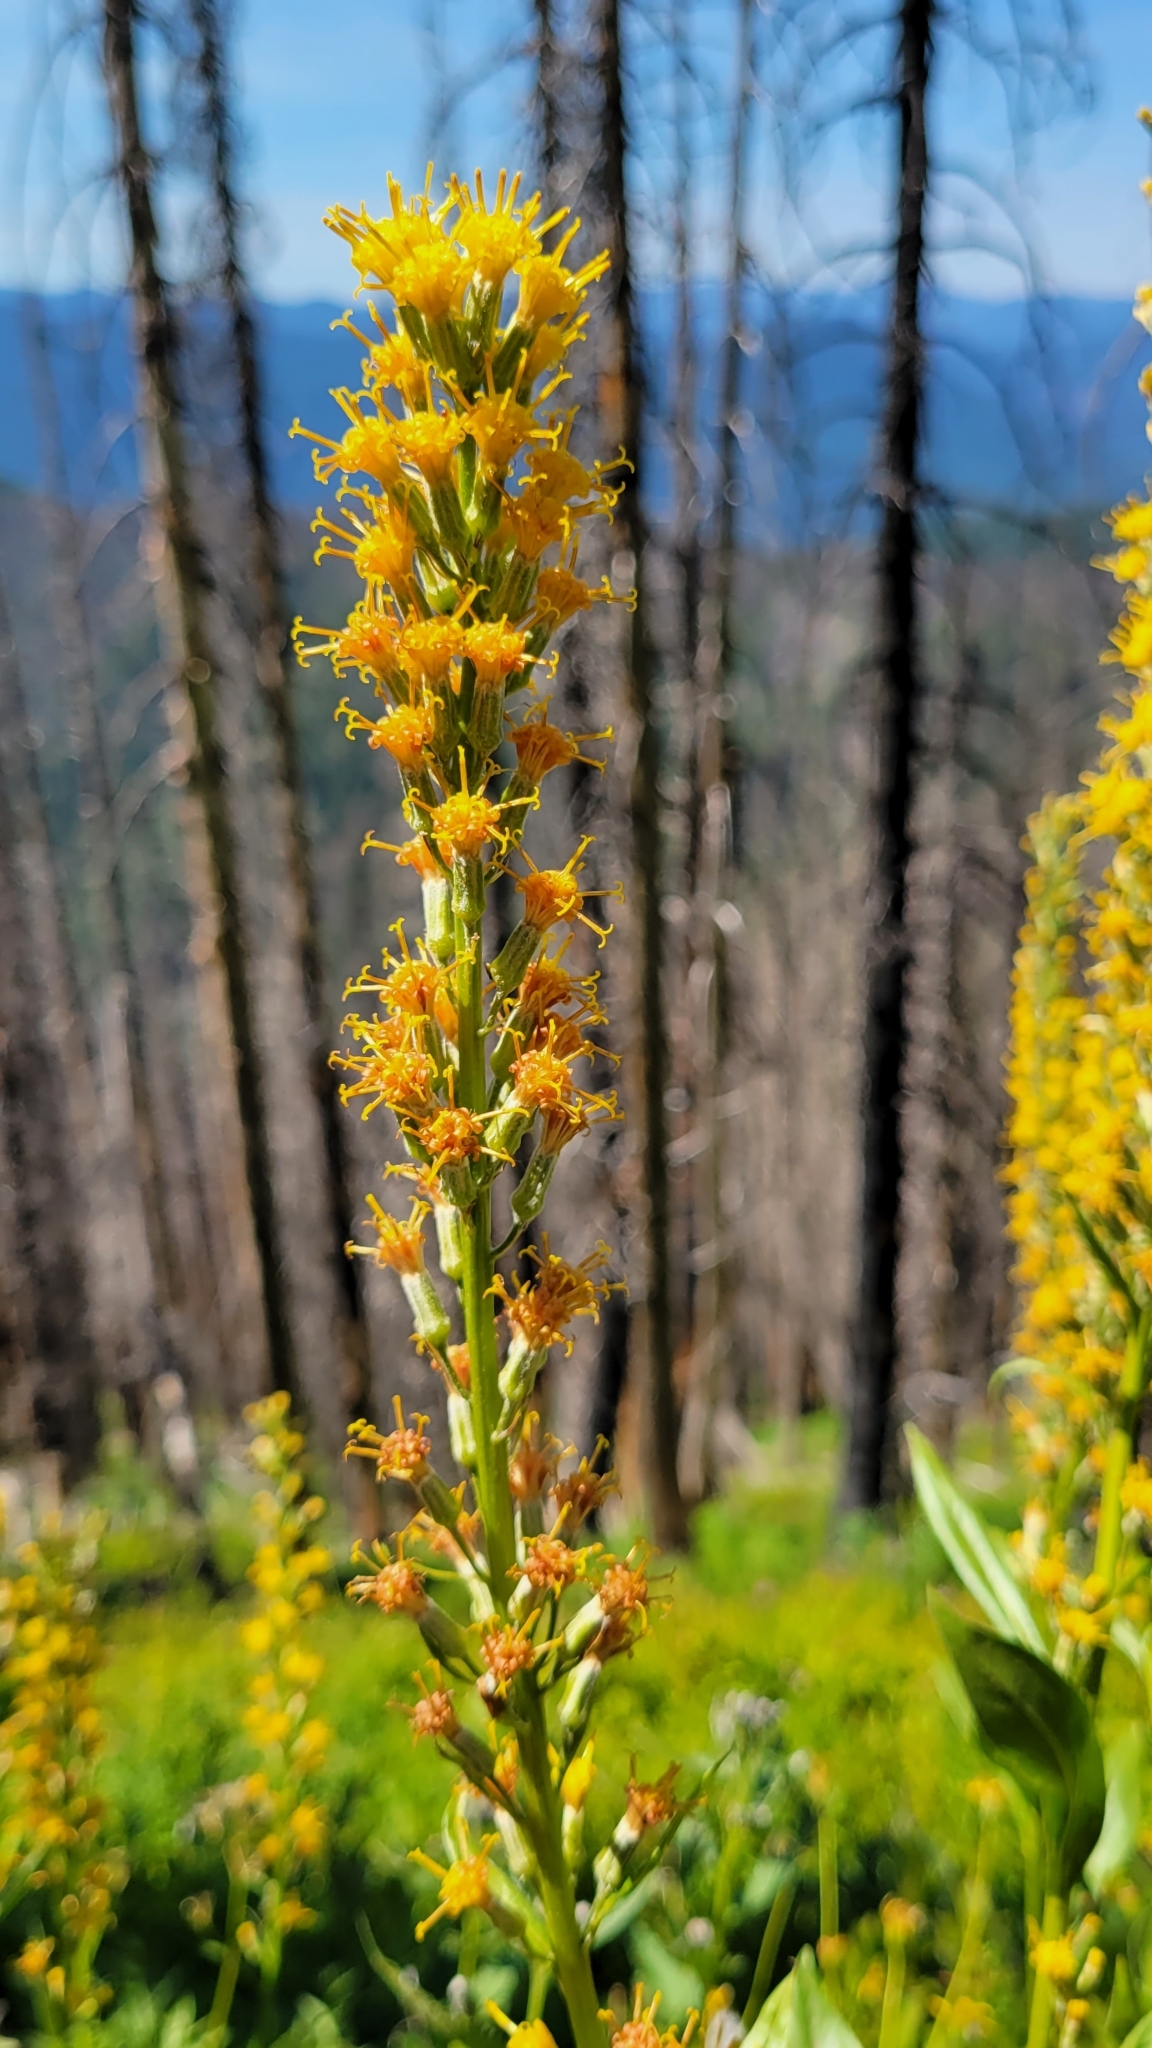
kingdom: Plantae
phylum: Tracheophyta
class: Magnoliopsida
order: Asterales
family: Asteraceae
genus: Rainiera
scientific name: Rainiera stricta
